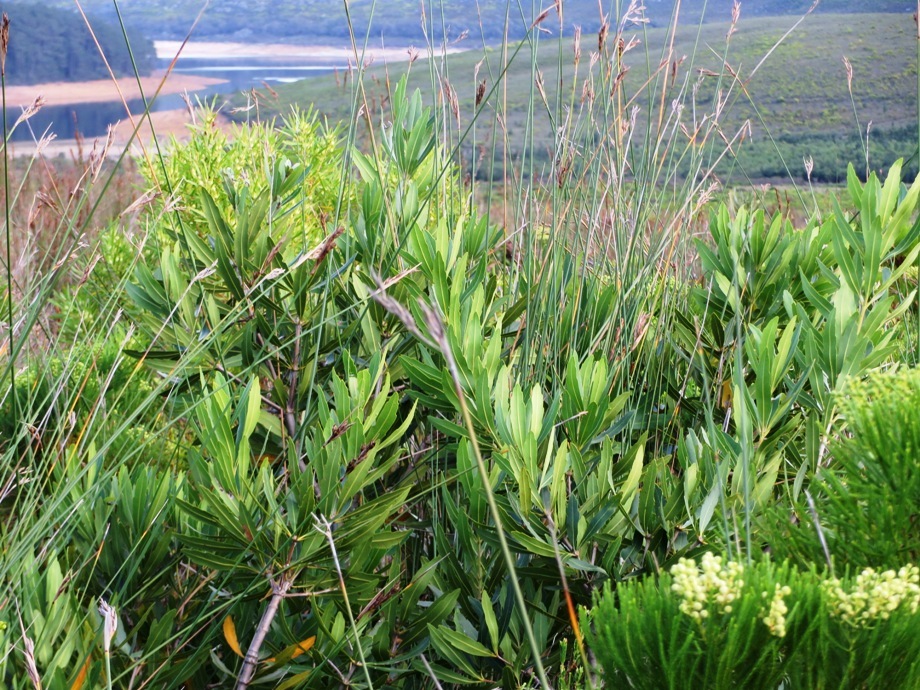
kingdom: Plantae
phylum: Tracheophyta
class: Magnoliopsida
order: Proteales
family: Proteaceae
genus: Brabejum
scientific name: Brabejum stellatifolium
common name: Wild almond
